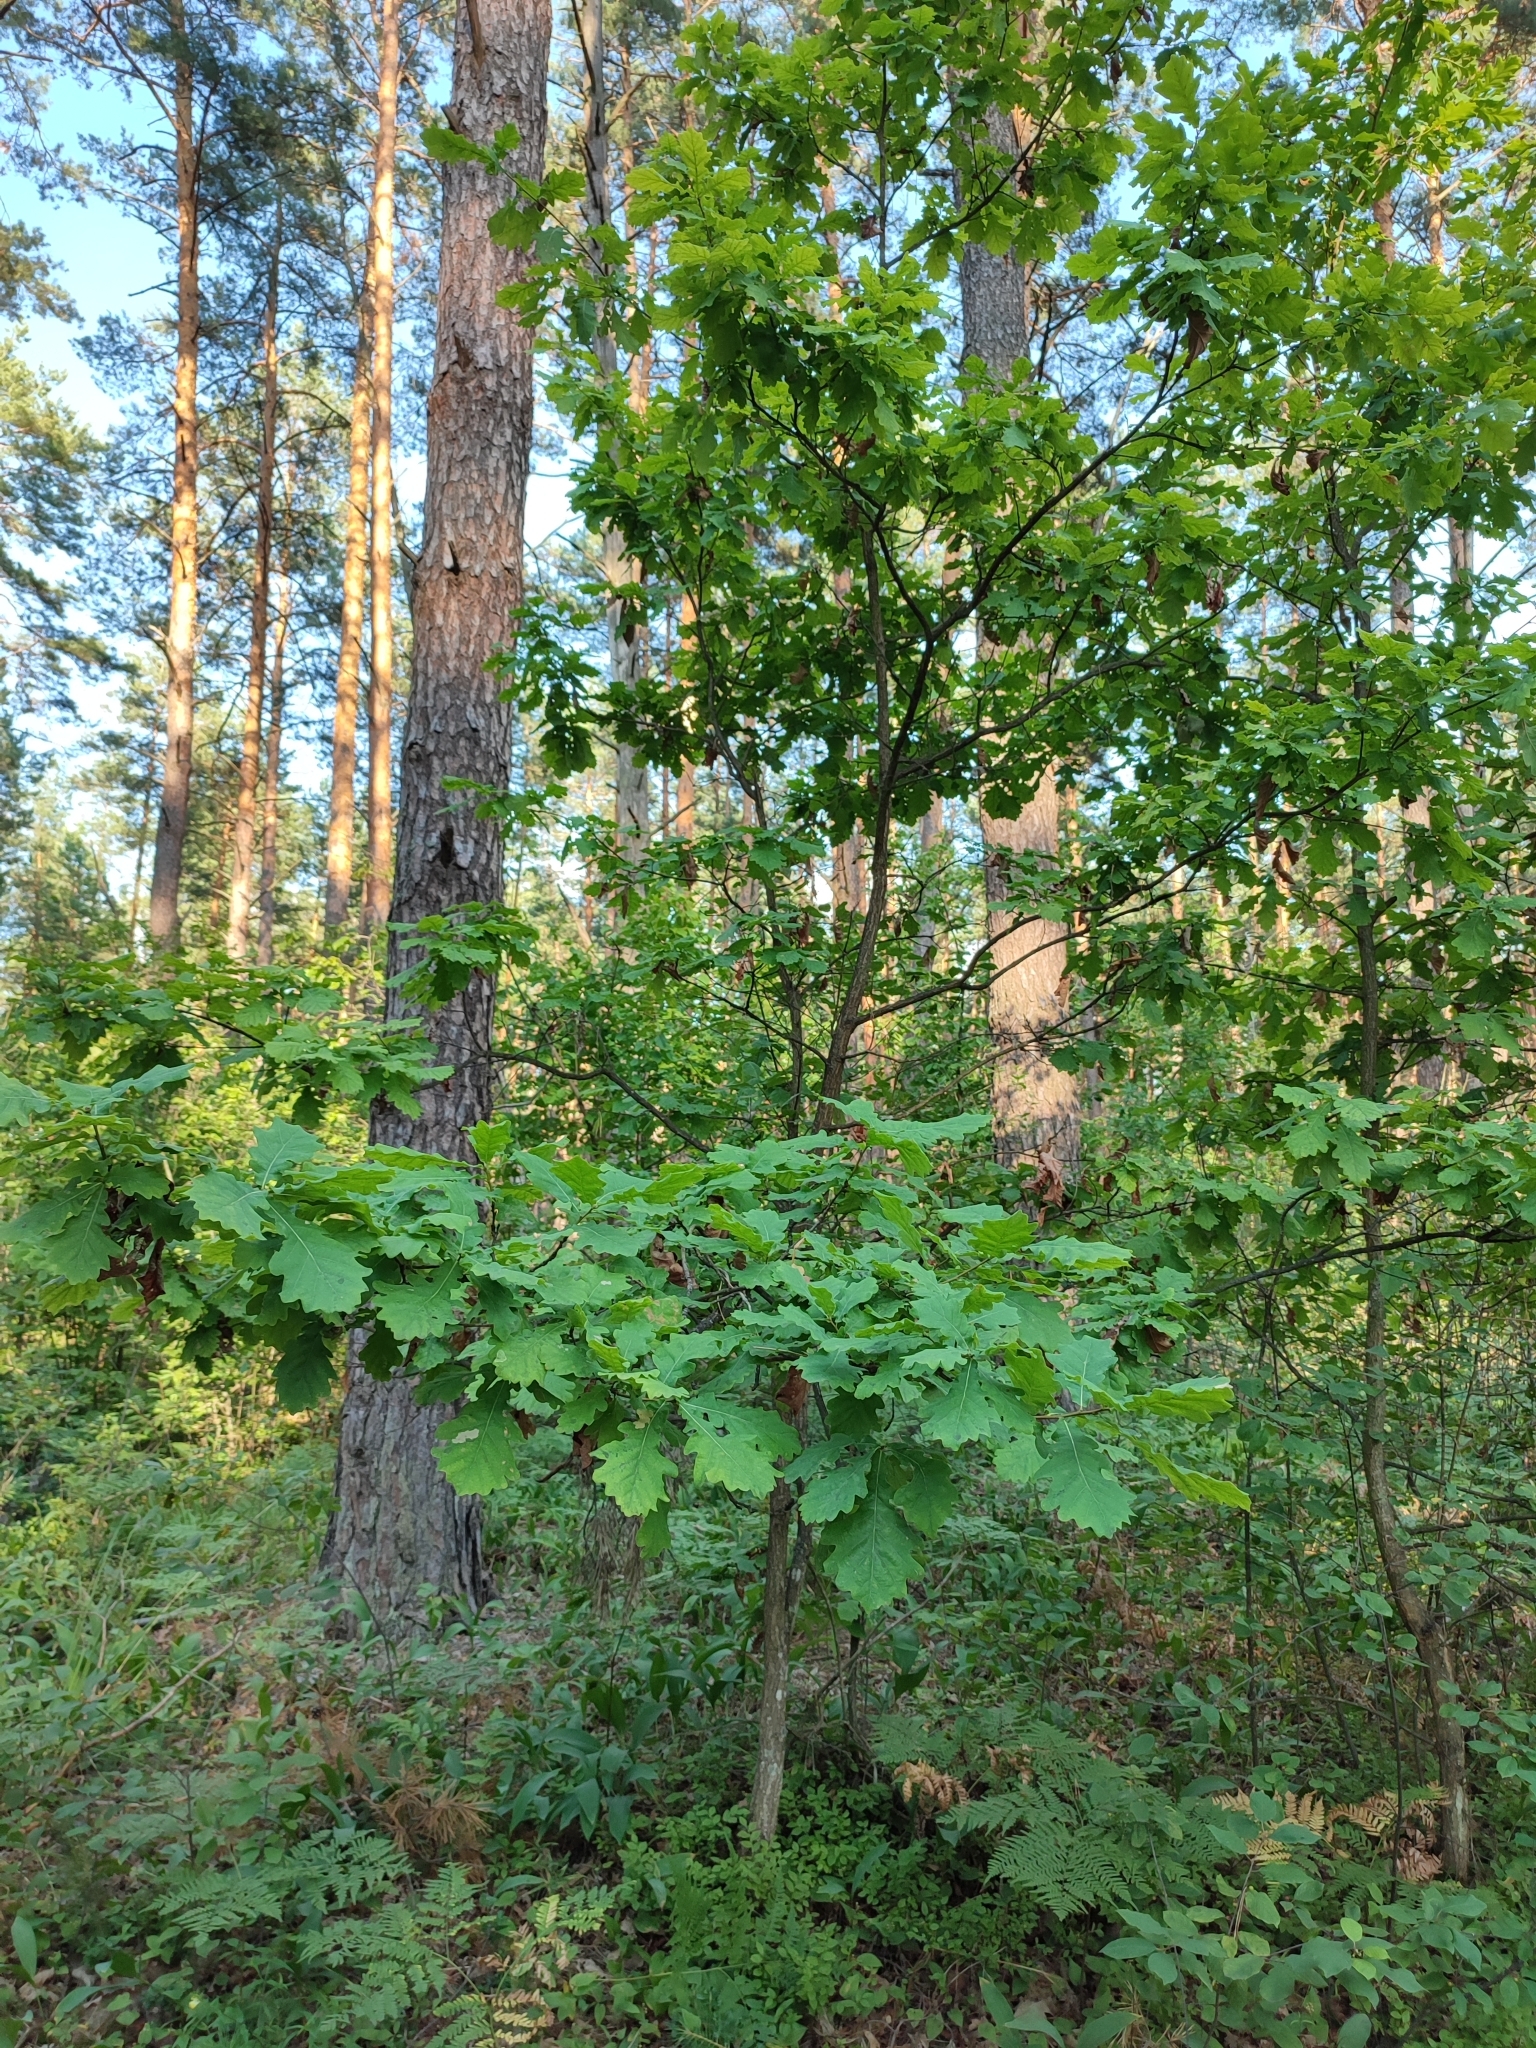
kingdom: Plantae
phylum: Tracheophyta
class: Magnoliopsida
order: Fagales
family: Fagaceae
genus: Quercus
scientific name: Quercus robur
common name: Pedunculate oak
